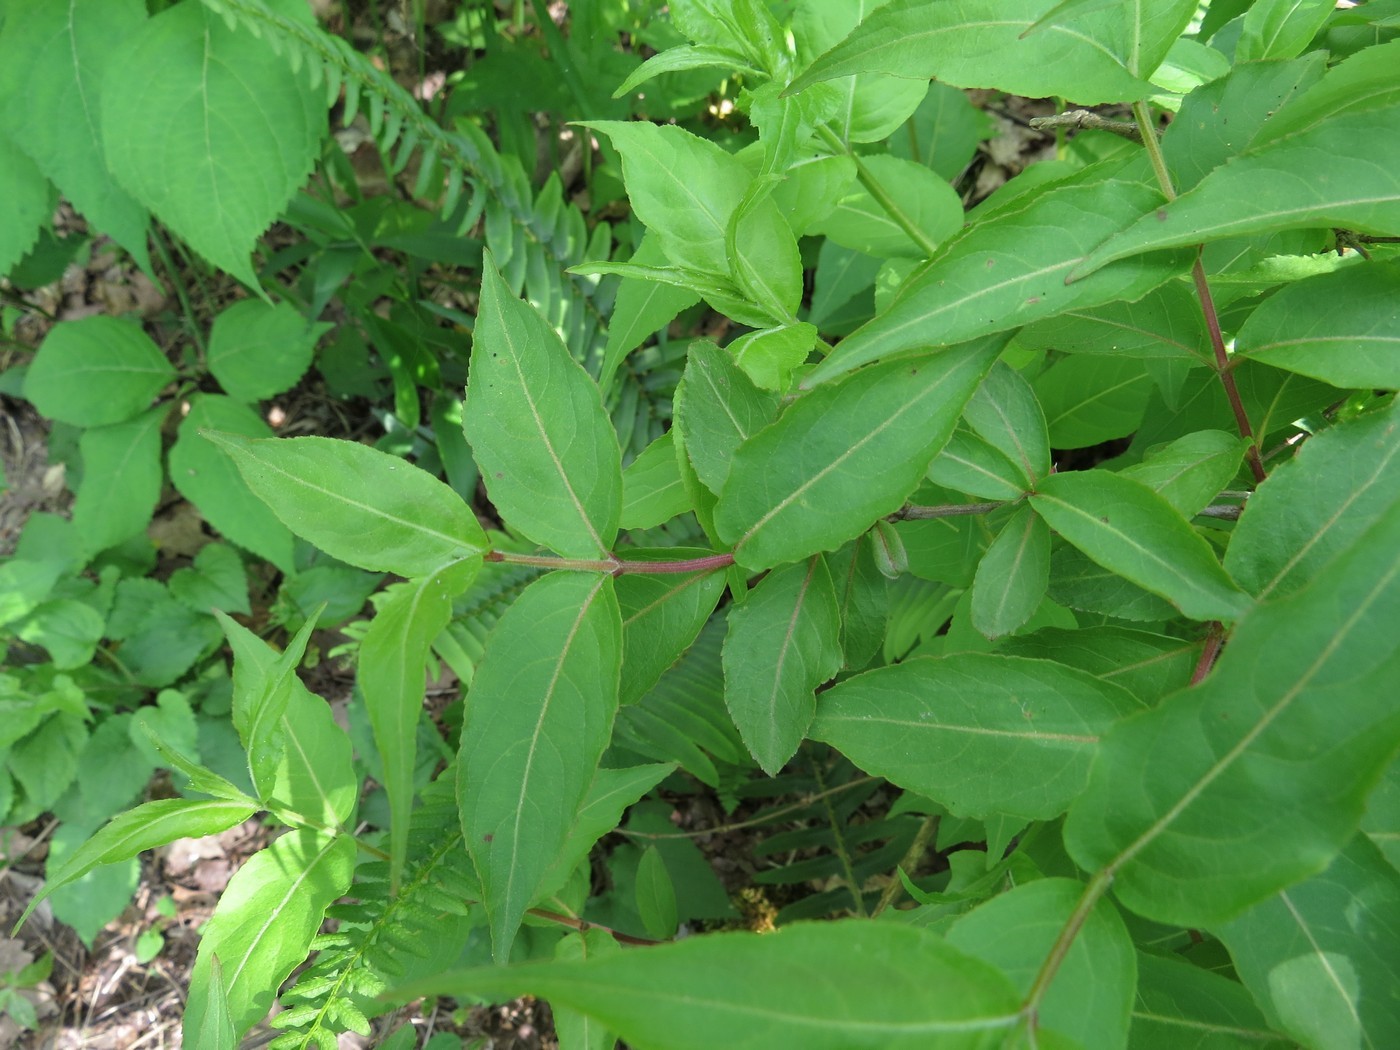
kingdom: Plantae
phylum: Tracheophyta
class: Magnoliopsida
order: Dipsacales
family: Caprifoliaceae
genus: Diervilla
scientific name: Diervilla rivularis
